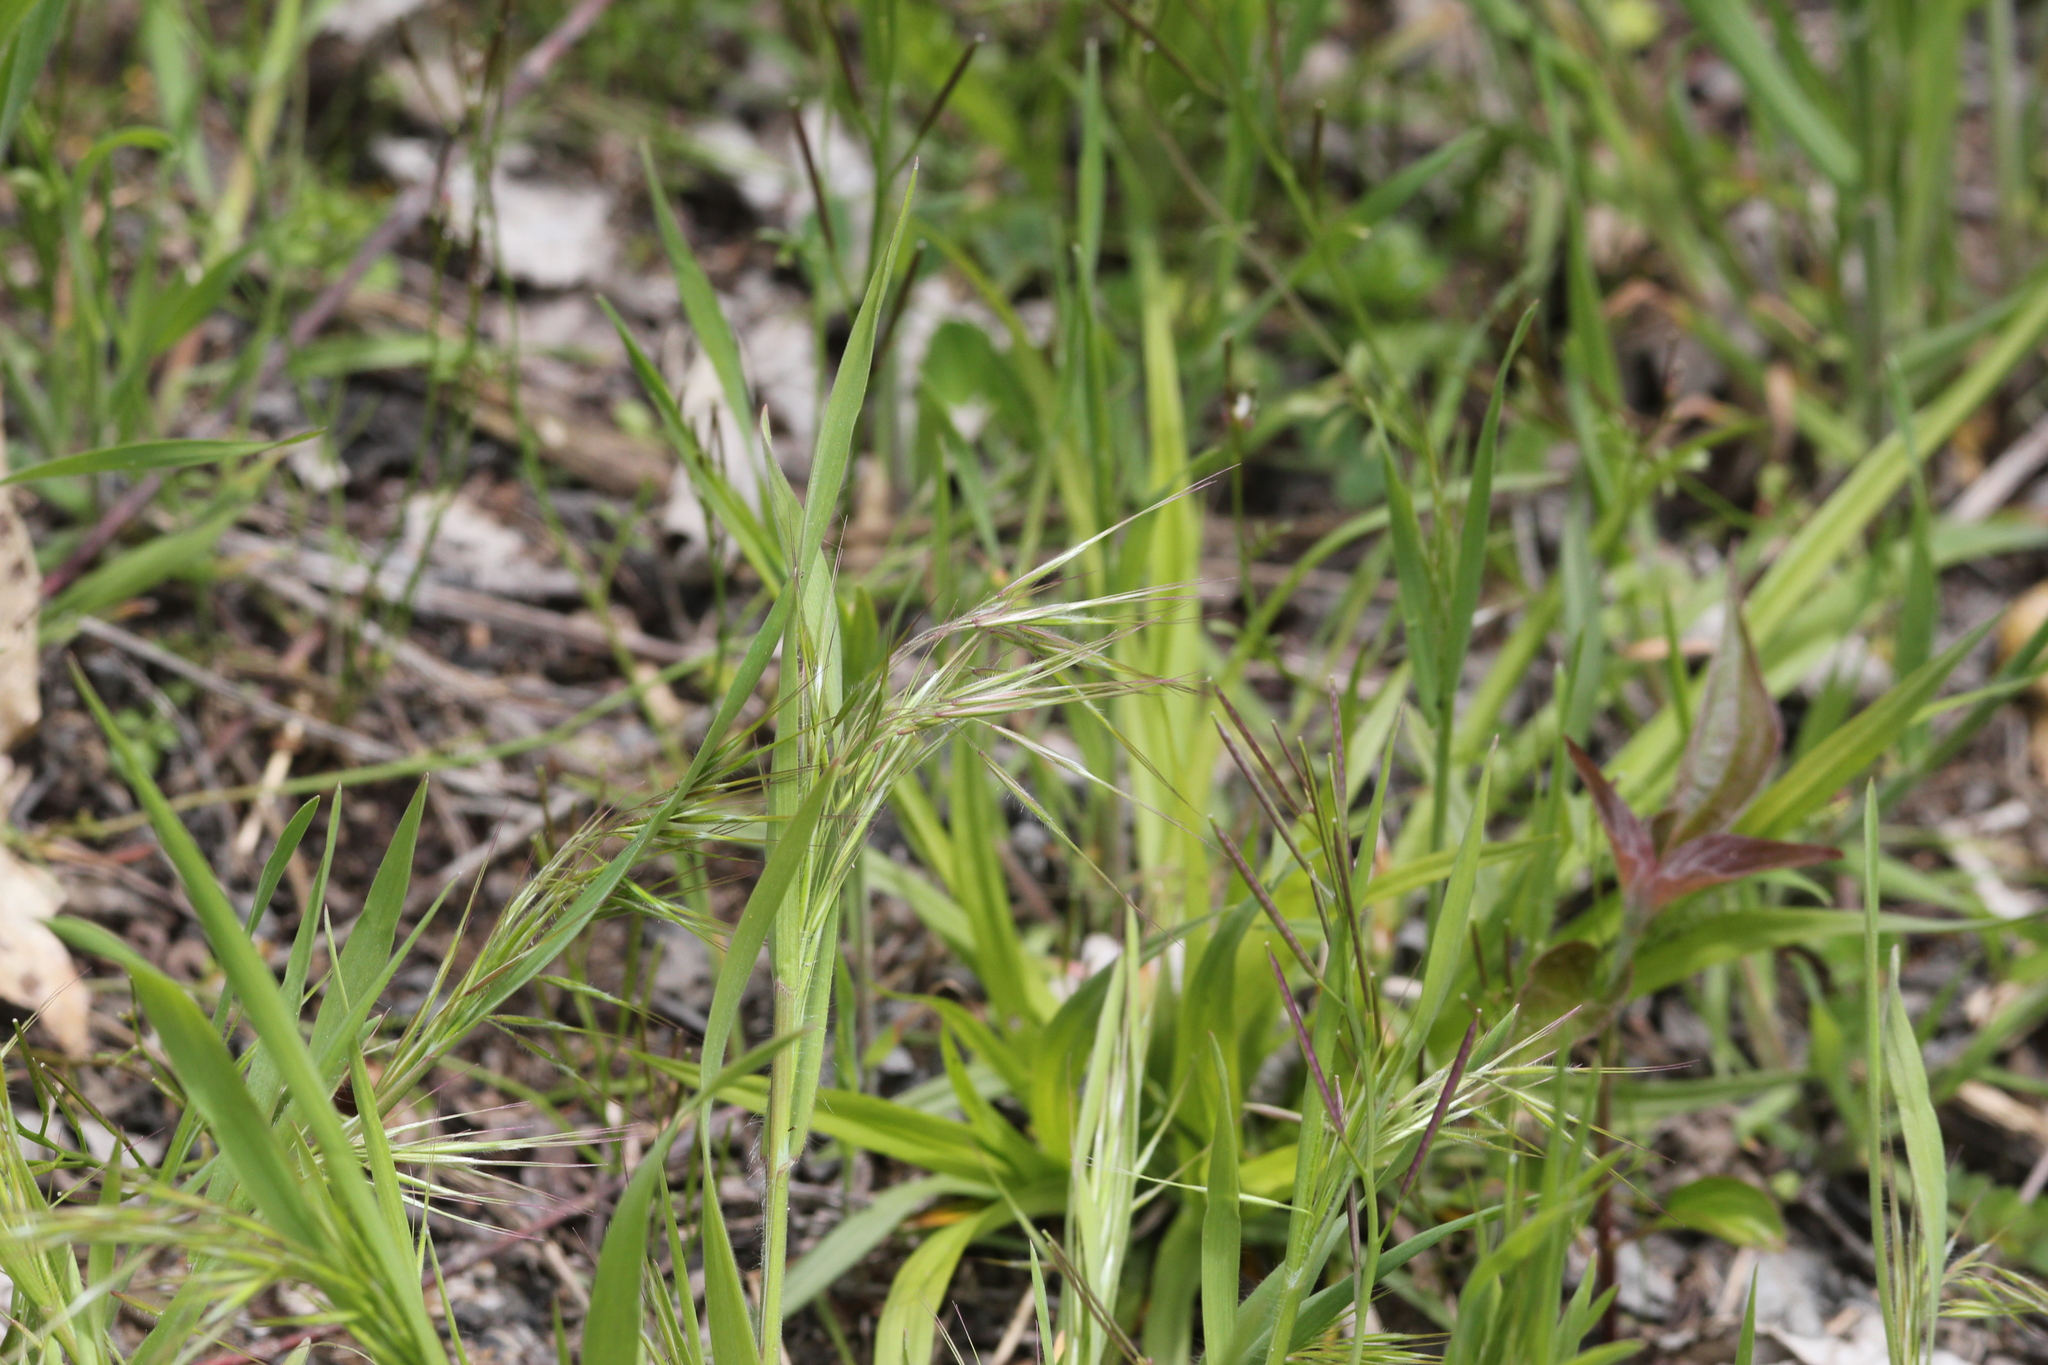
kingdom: Plantae
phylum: Tracheophyta
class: Liliopsida
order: Poales
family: Poaceae
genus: Bromus
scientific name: Bromus tectorum
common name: Cheatgrass
